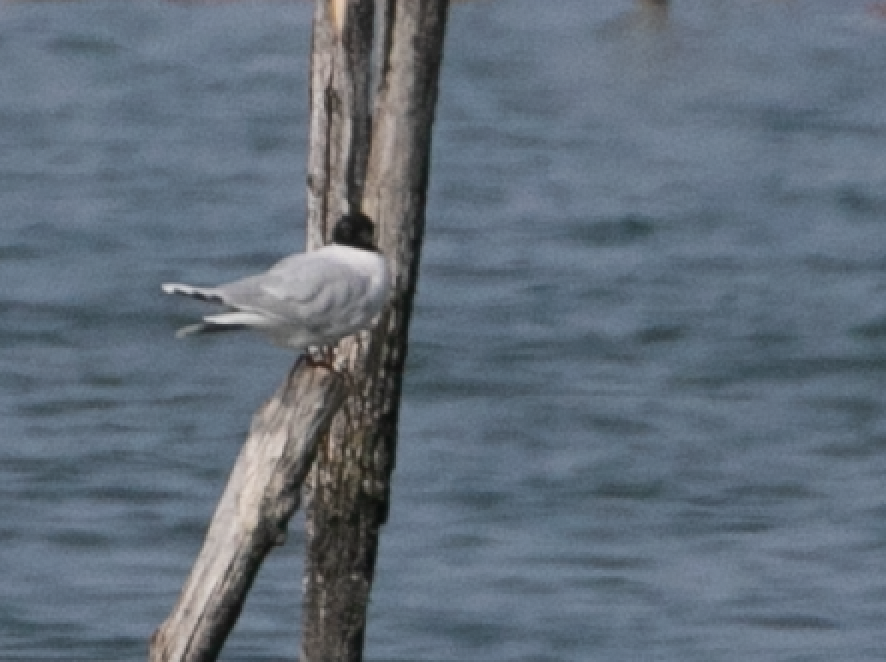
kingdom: Animalia
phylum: Chordata
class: Aves
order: Charadriiformes
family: Laridae
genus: Hydrocoloeus
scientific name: Hydrocoloeus minutus
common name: Little gull
